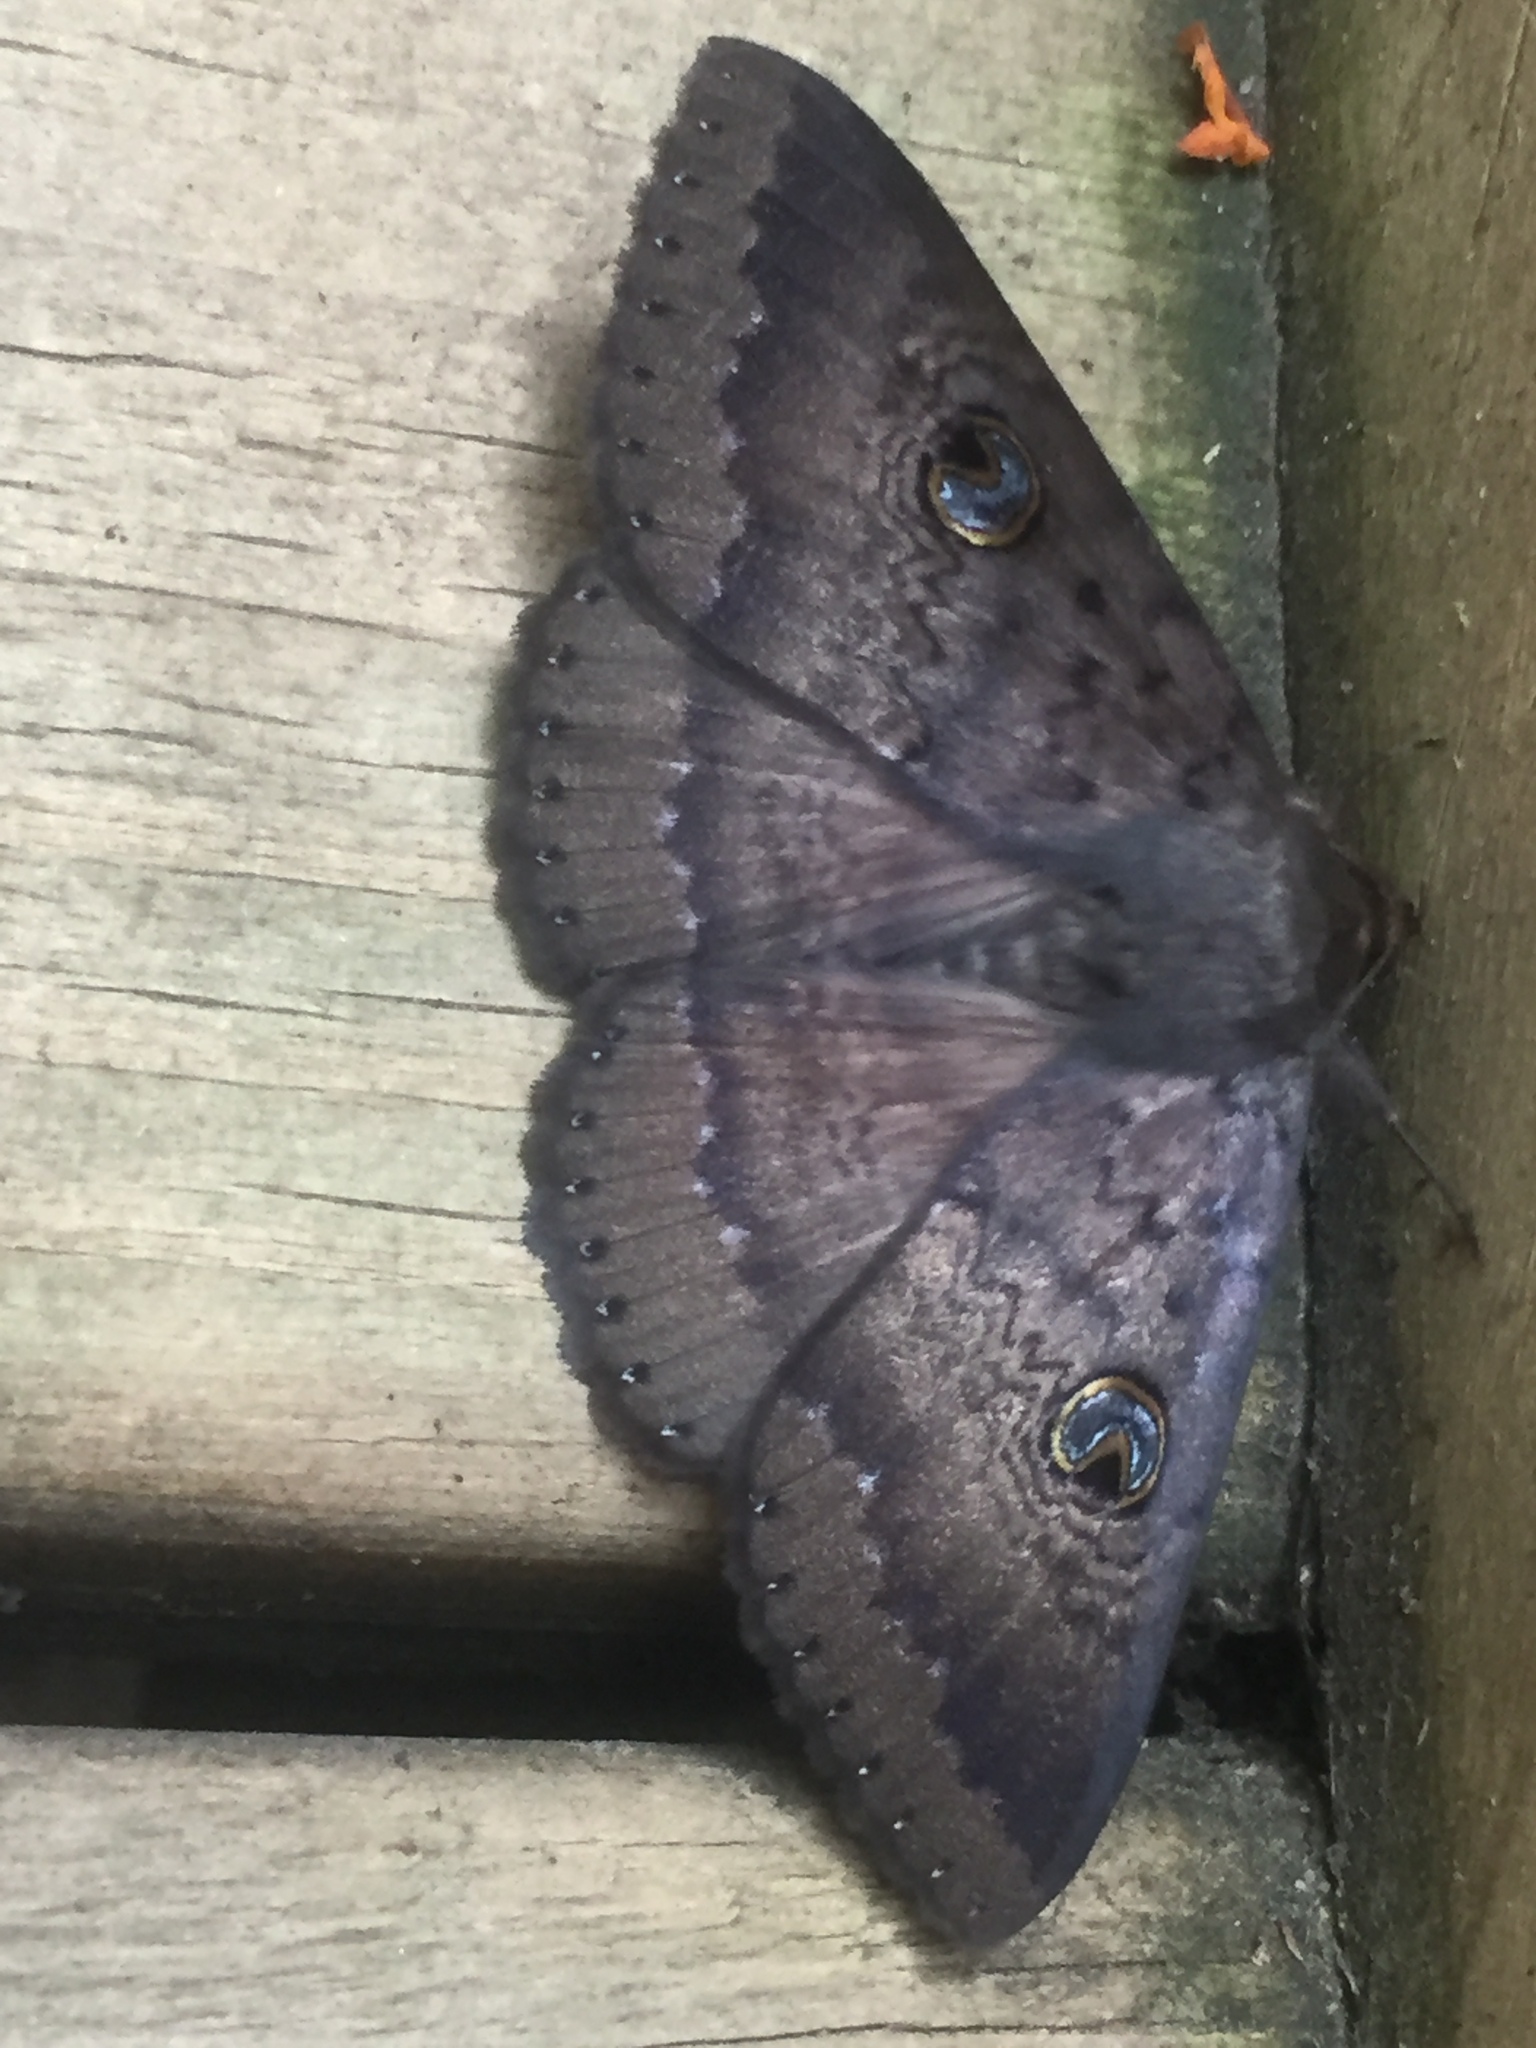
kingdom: Animalia
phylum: Arthropoda
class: Insecta
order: Lepidoptera
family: Erebidae
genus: Dasypodia
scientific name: Dasypodia cymatodes
